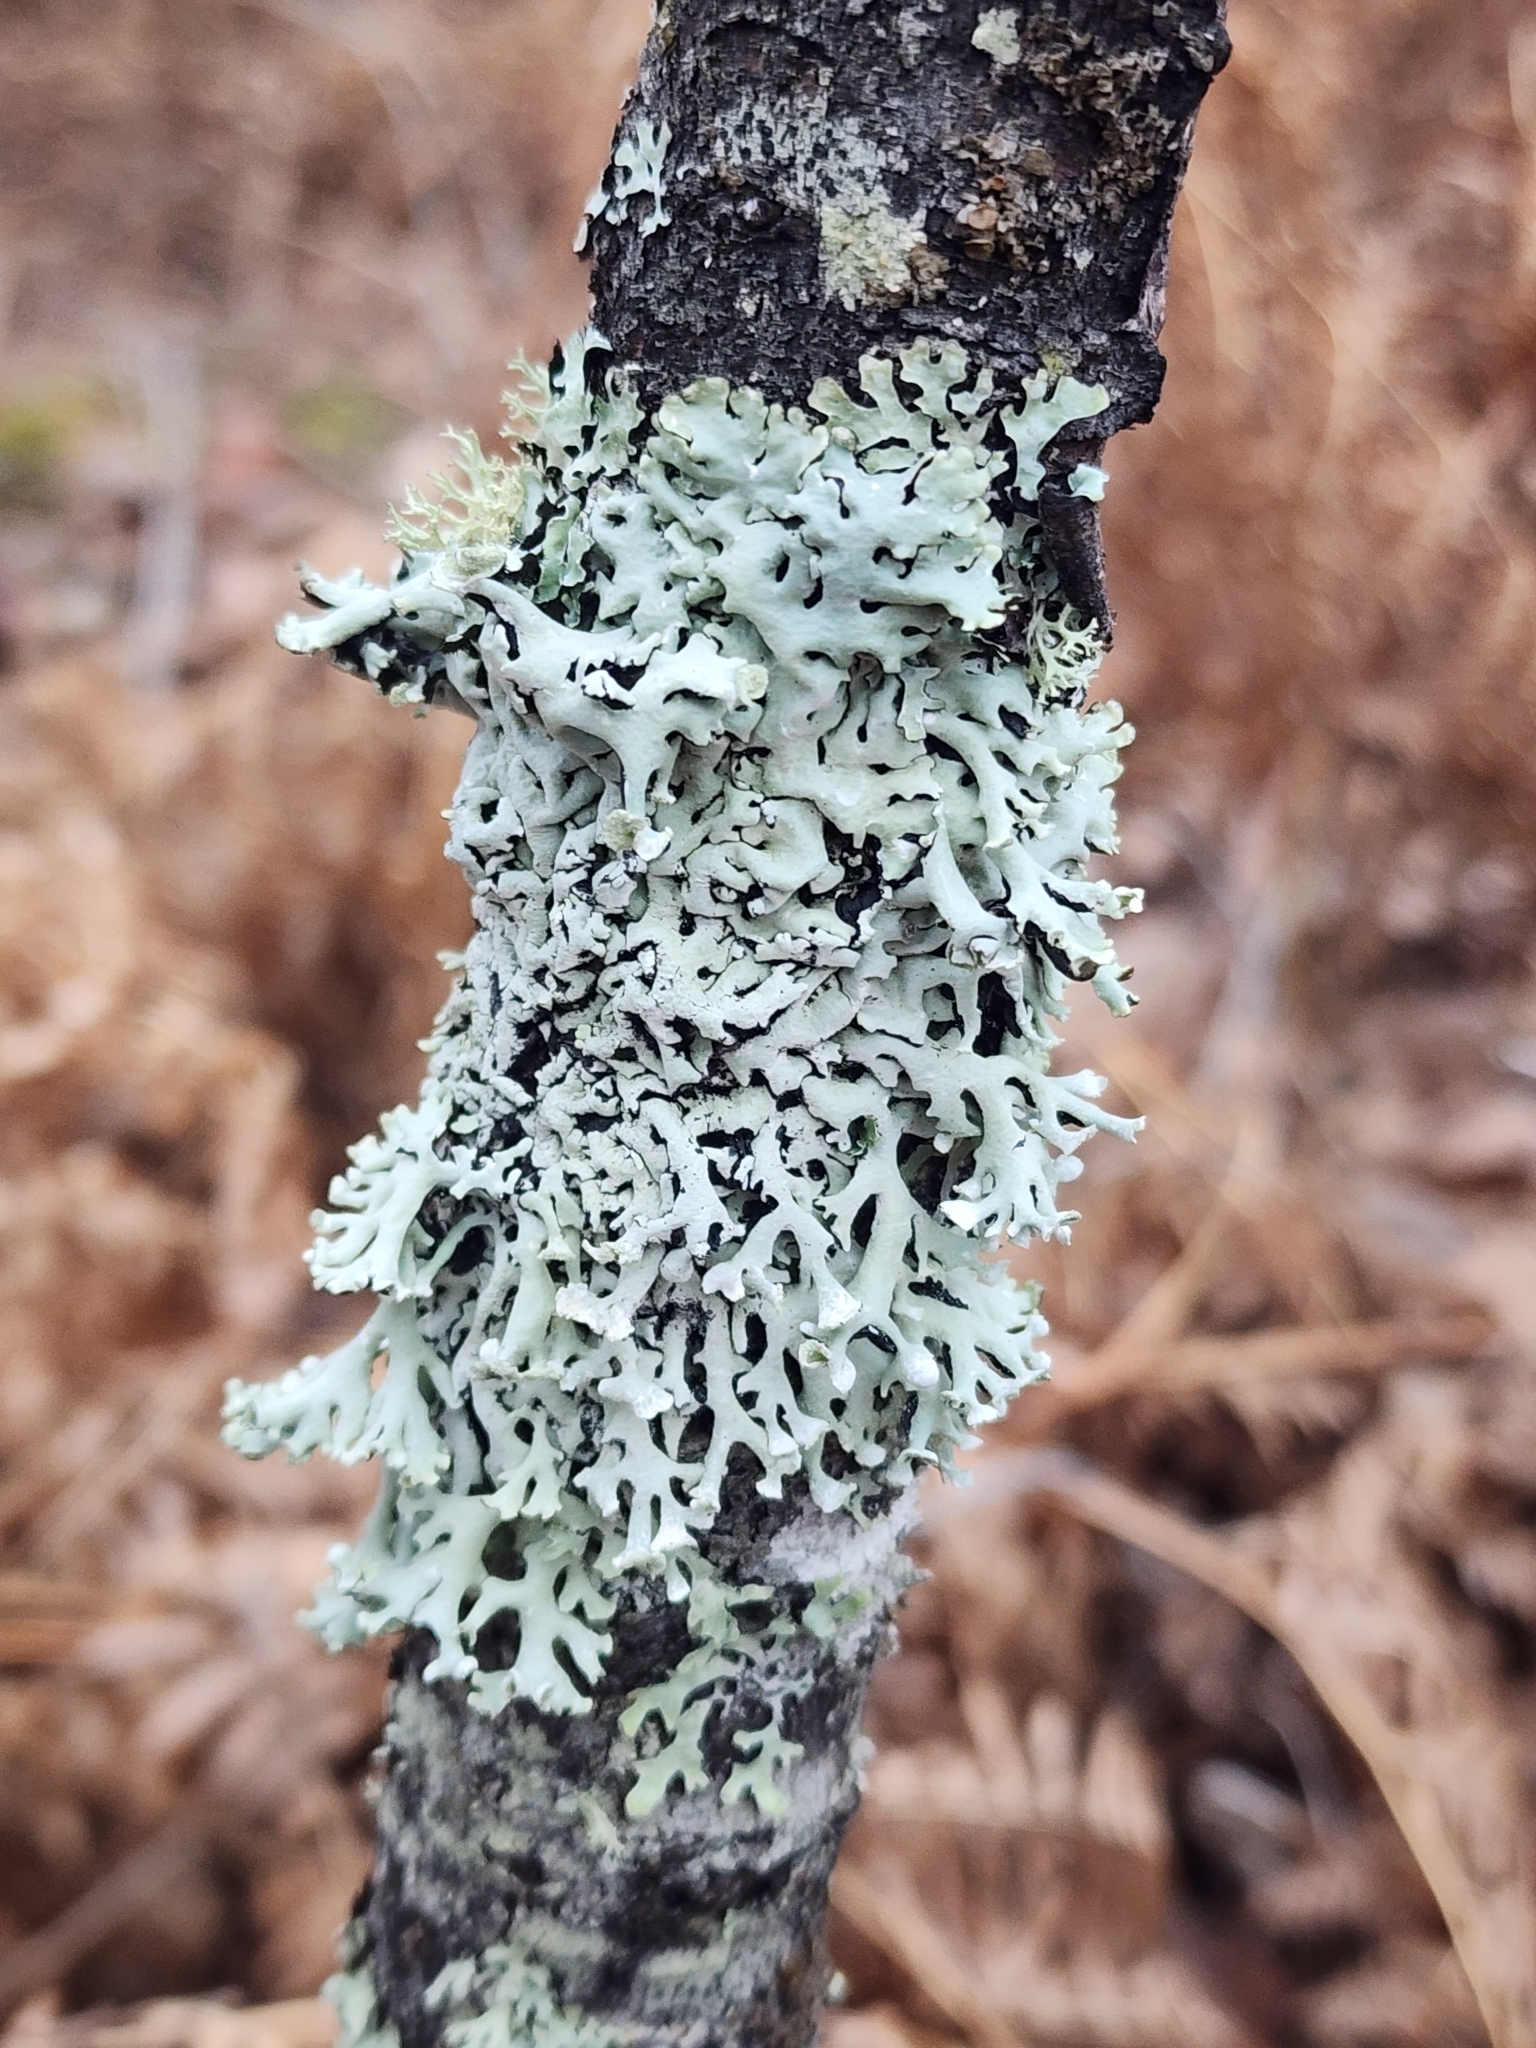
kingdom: Fungi
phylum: Ascomycota
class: Lecanoromycetes
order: Lecanorales
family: Parmeliaceae
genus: Hypogymnia
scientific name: Hypogymnia physodes
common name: Dark crottle
